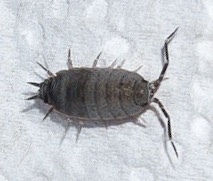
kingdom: Animalia
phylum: Arthropoda
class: Malacostraca
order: Isopoda
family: Porcellionidae
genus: Porcellionides
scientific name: Porcellionides pruinosus
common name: Plum woodlouse
